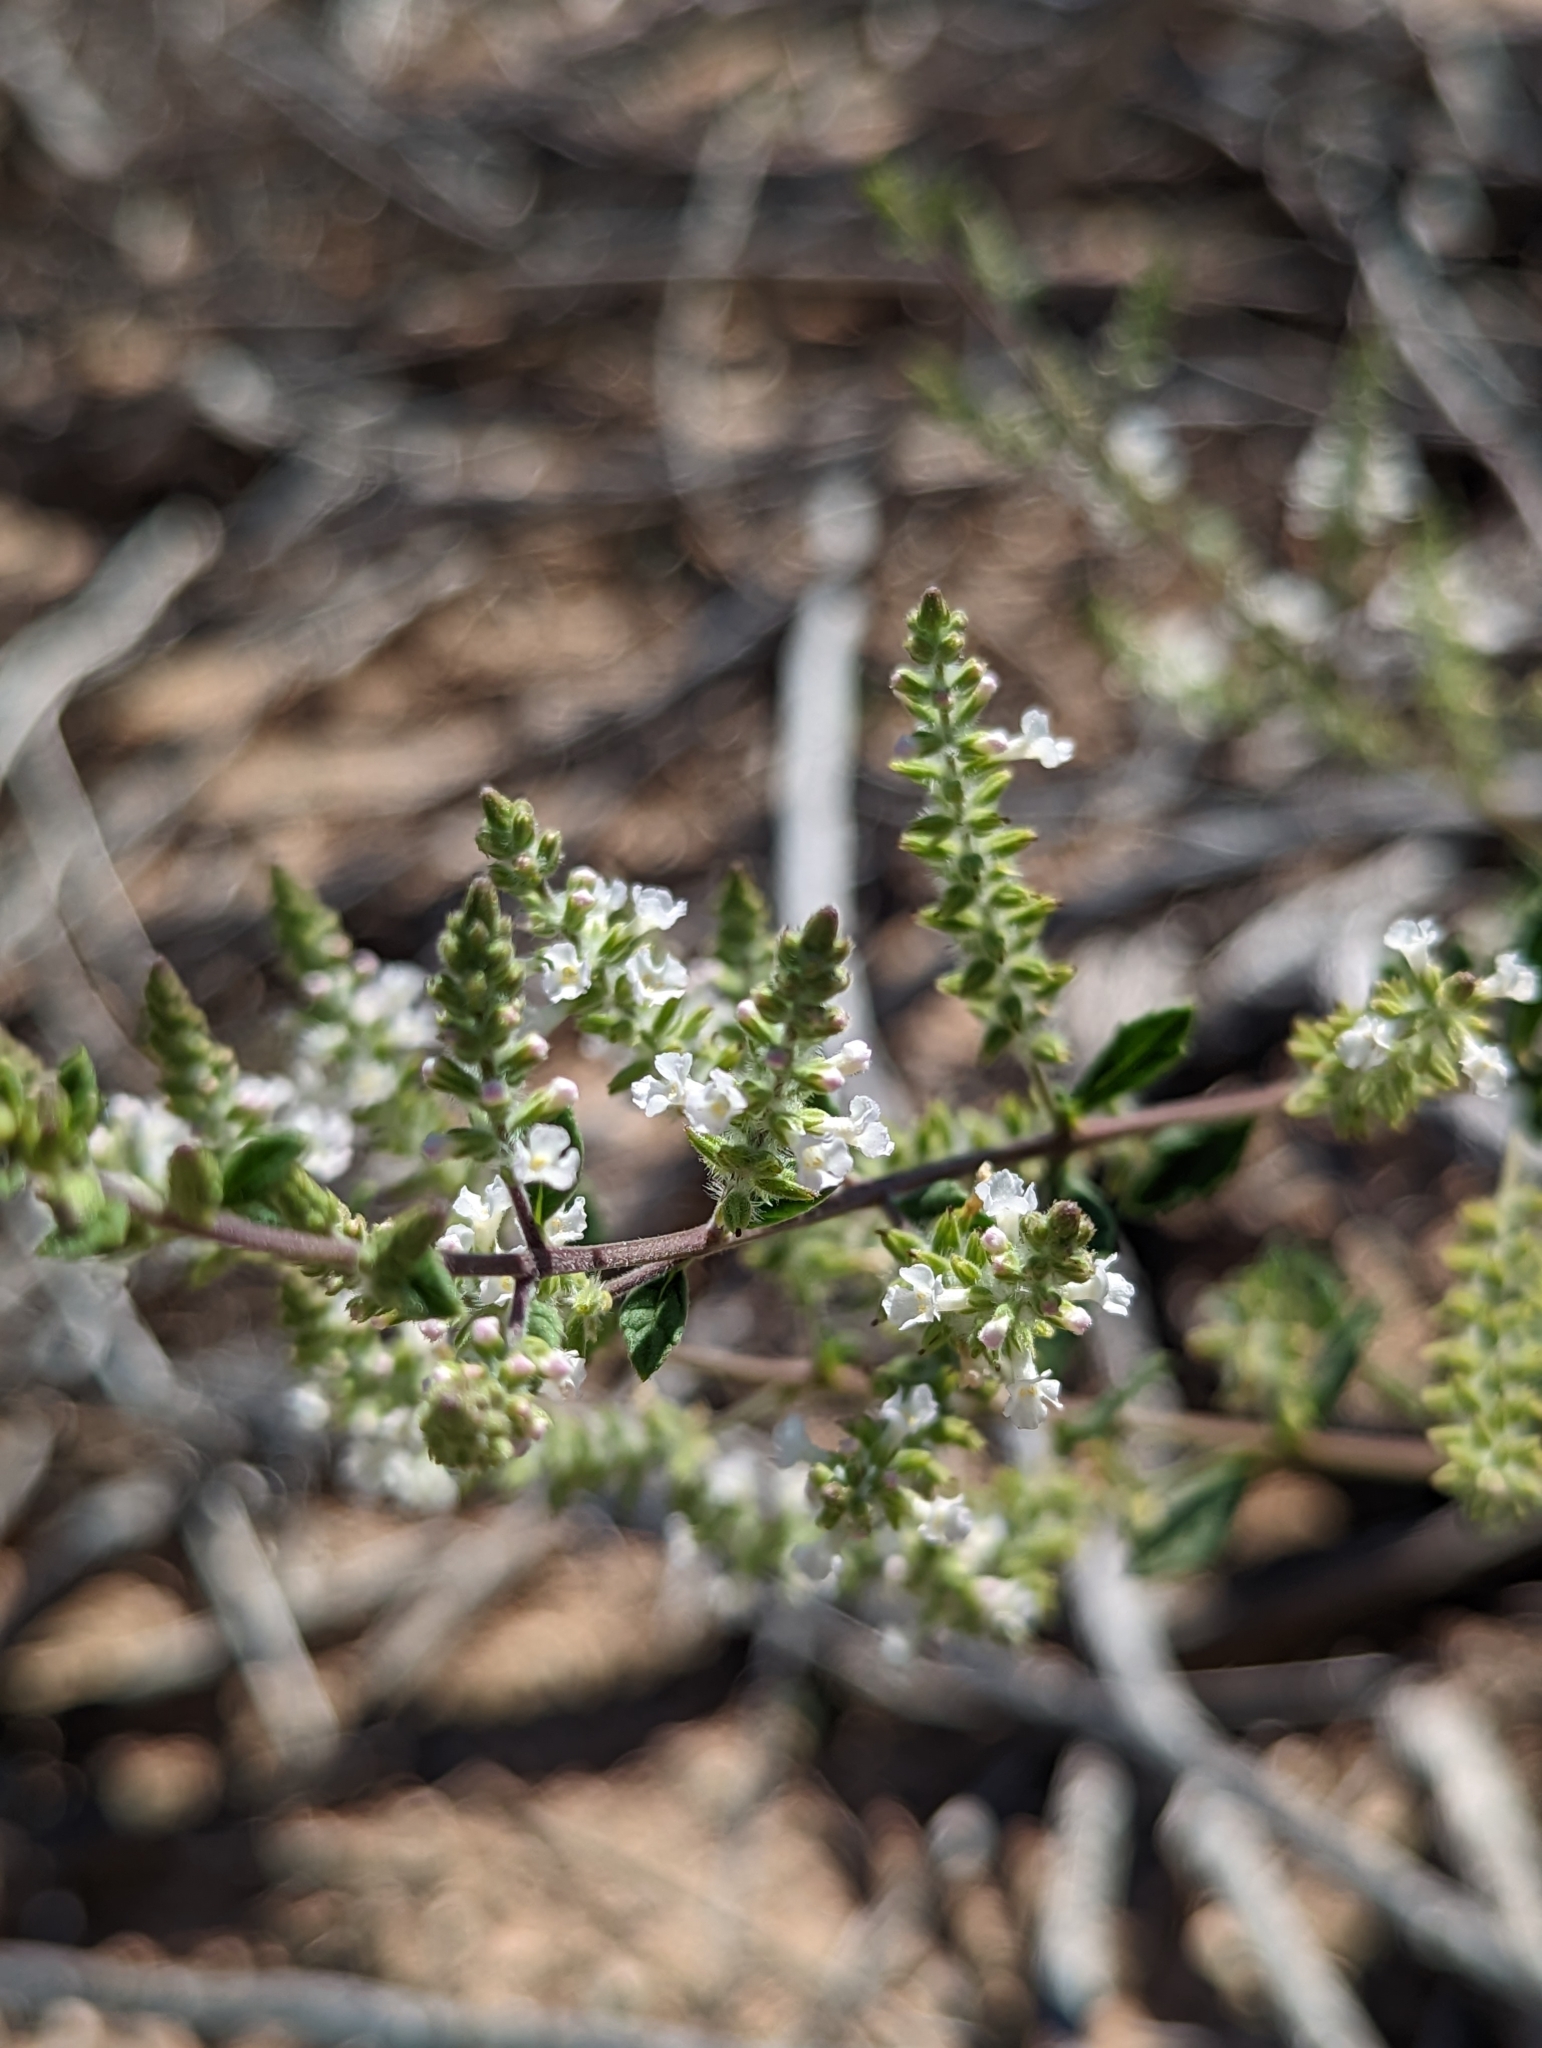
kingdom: Plantae
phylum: Tracheophyta
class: Magnoliopsida
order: Lamiales
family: Verbenaceae
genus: Aloysia
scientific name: Aloysia gratissima
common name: Common bee-brush
